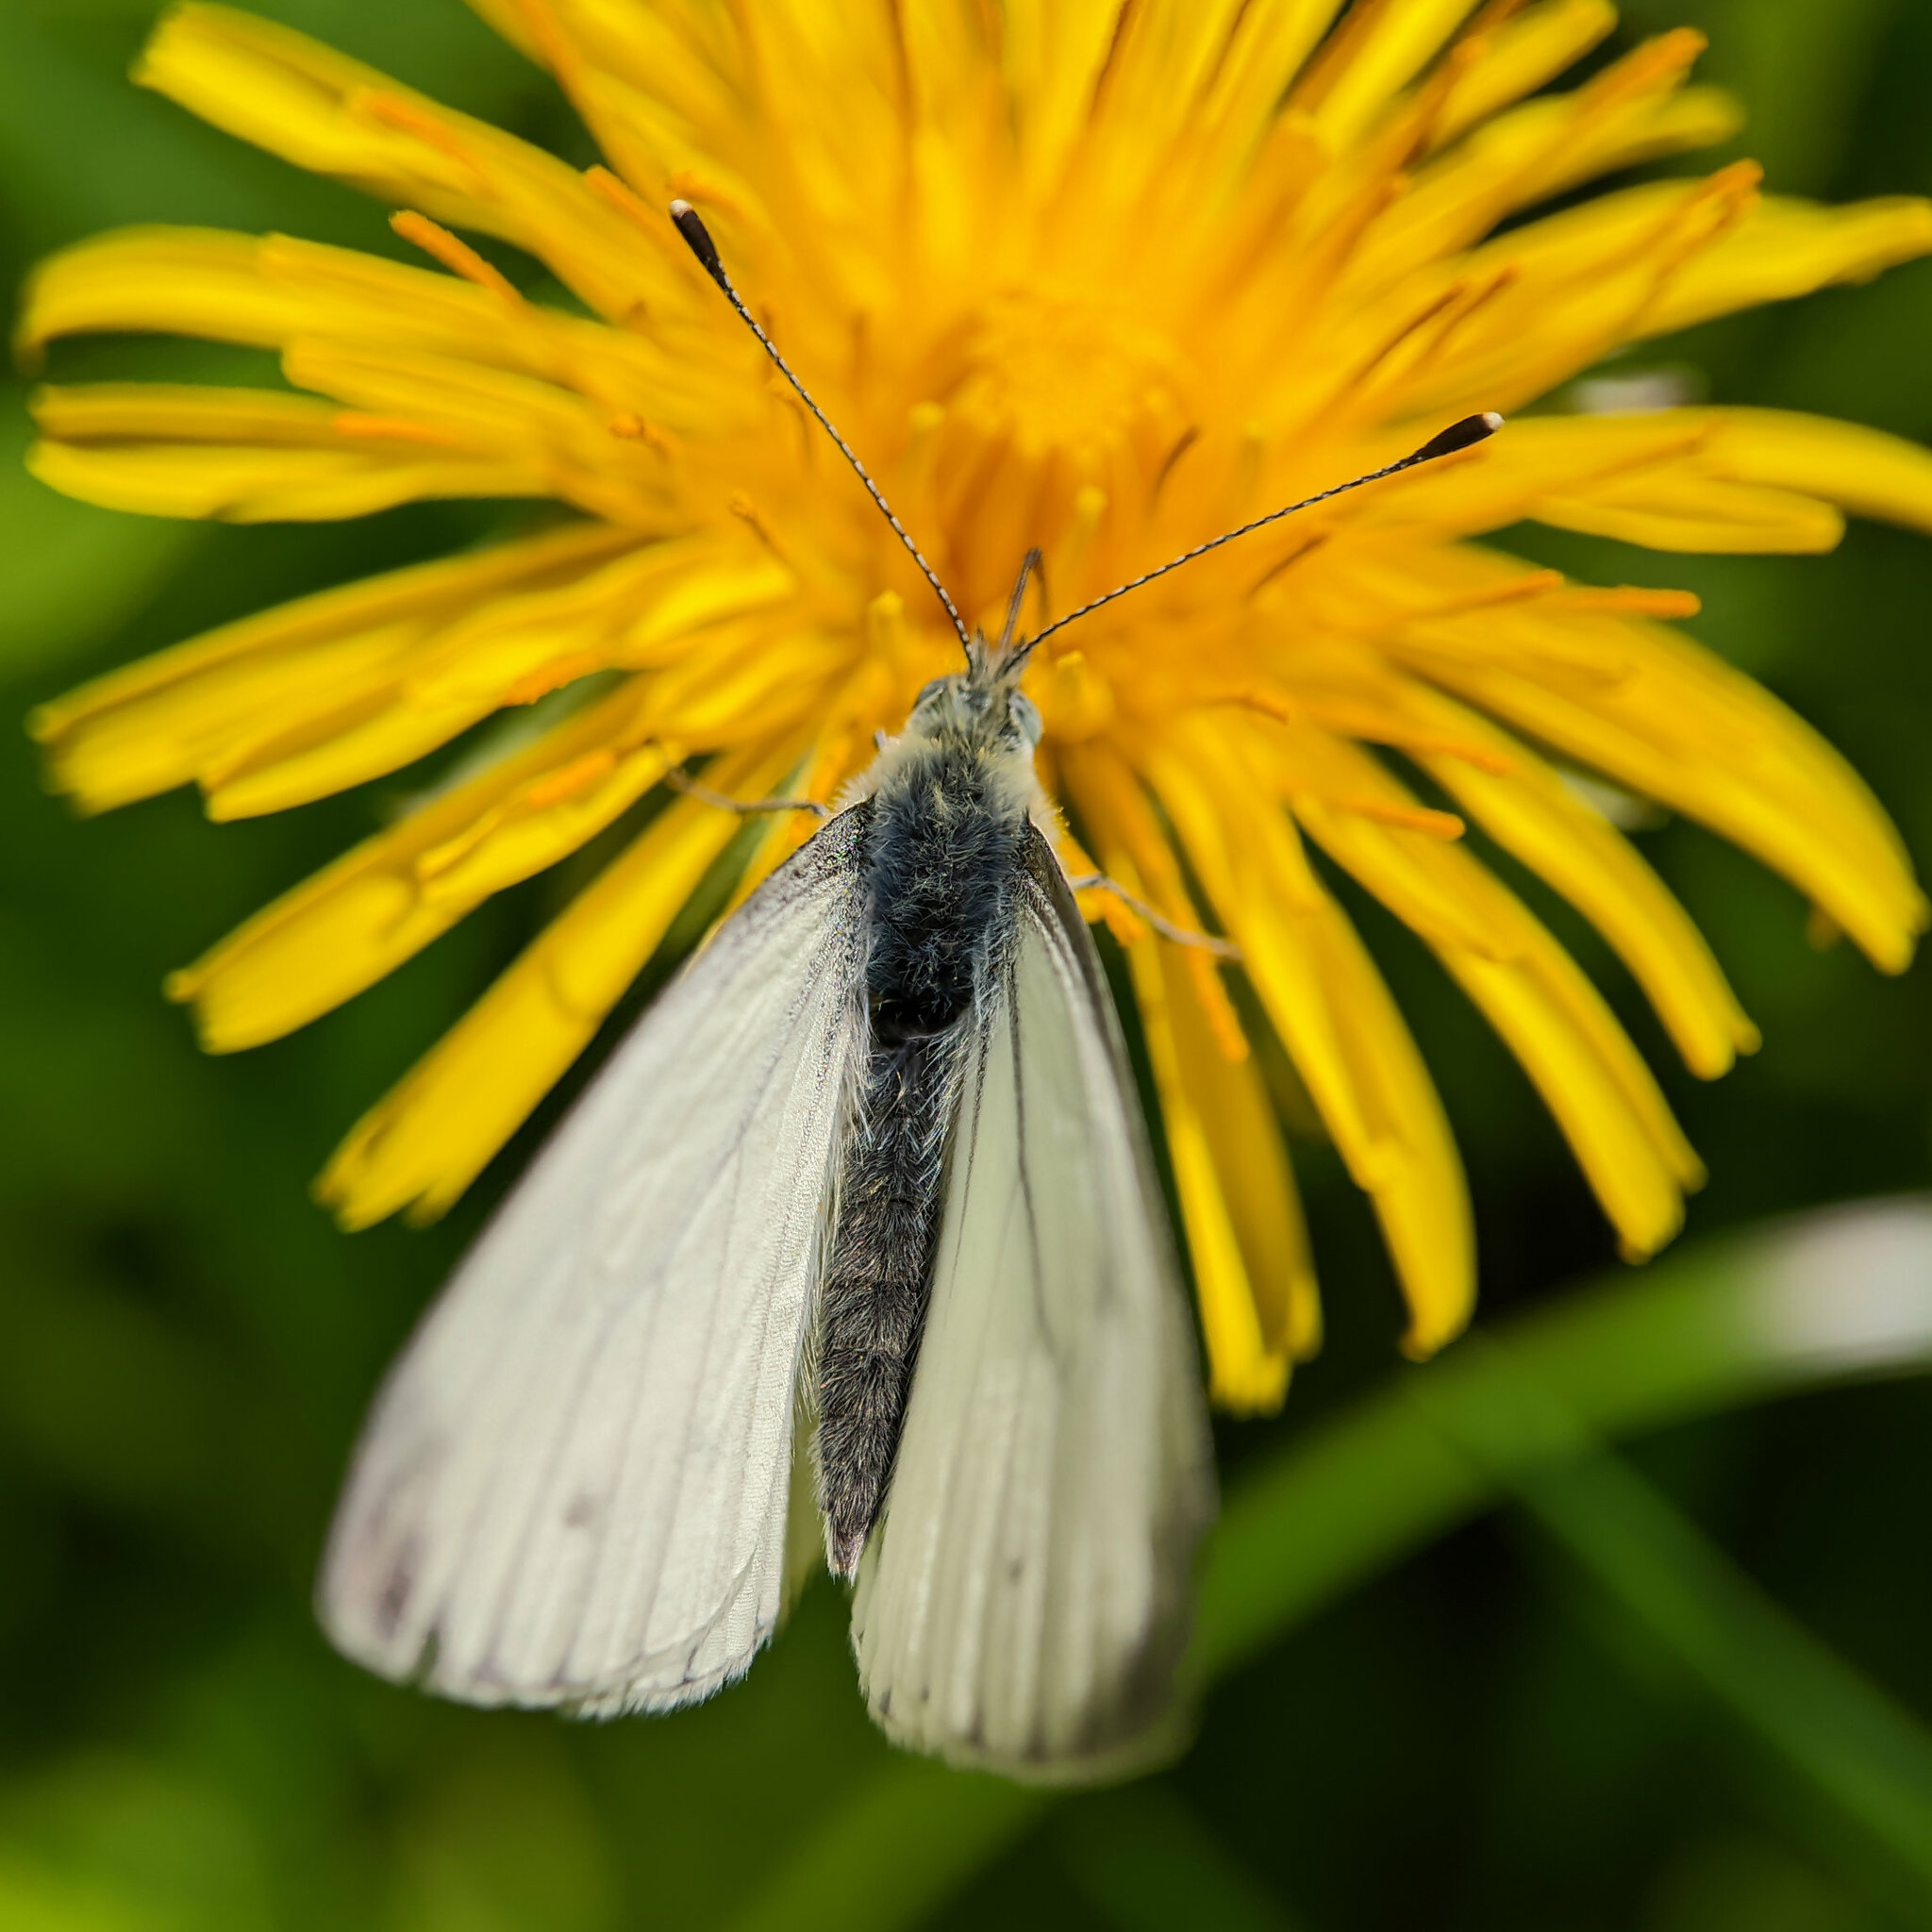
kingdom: Animalia
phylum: Arthropoda
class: Insecta
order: Lepidoptera
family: Pieridae
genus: Pieris
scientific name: Pieris napi
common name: Green-veined white
